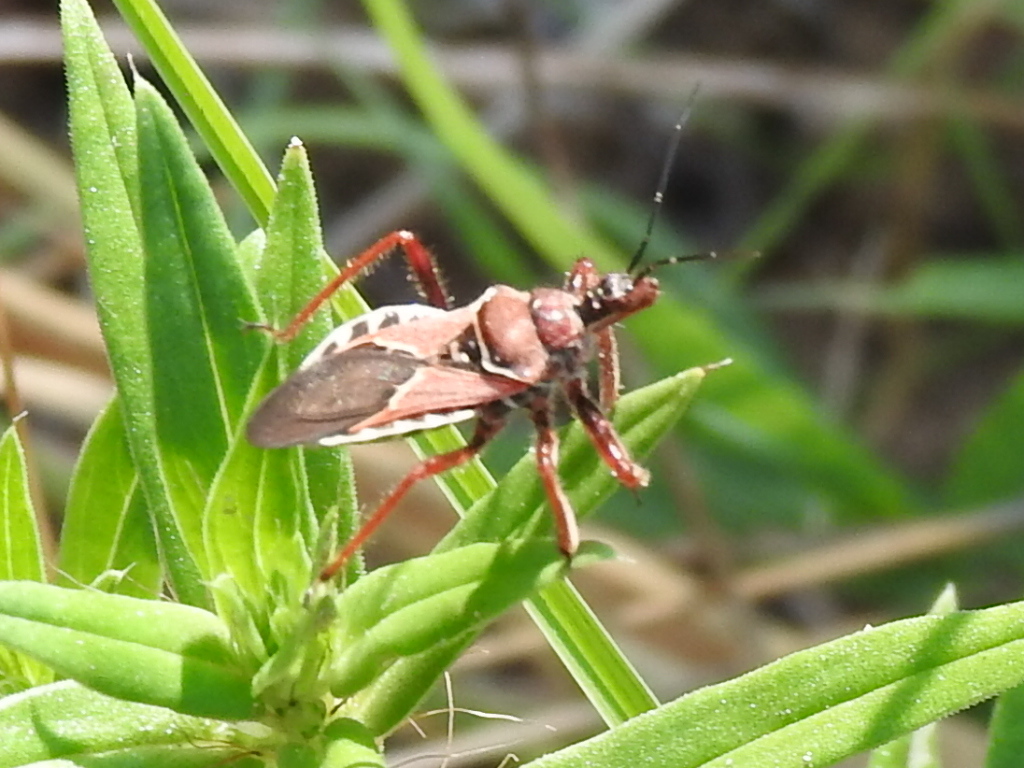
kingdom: Animalia
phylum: Arthropoda
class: Insecta
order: Hemiptera
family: Reduviidae
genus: Apiomerus
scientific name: Apiomerus spissipes
